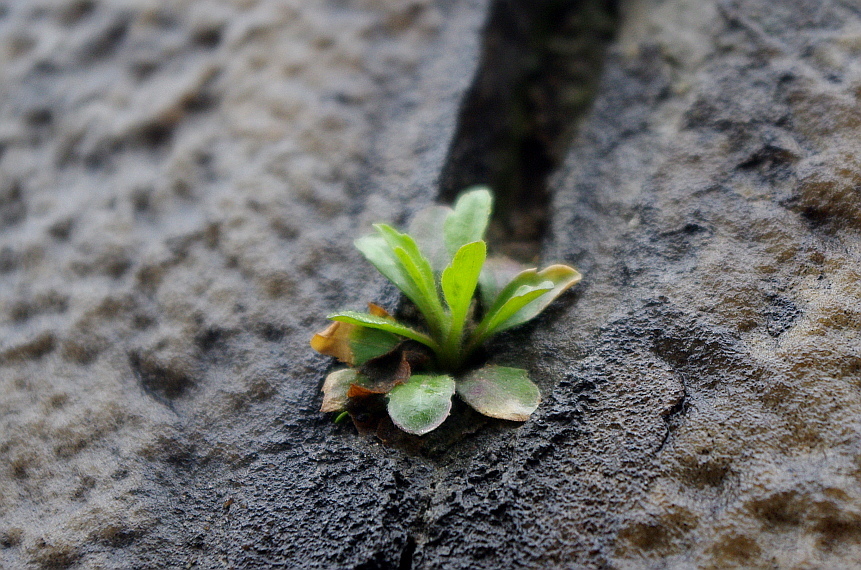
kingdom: Plantae
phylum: Tracheophyta
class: Magnoliopsida
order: Asterales
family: Asteraceae
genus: Erigeron
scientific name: Erigeron canadensis
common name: Canadian fleabane
